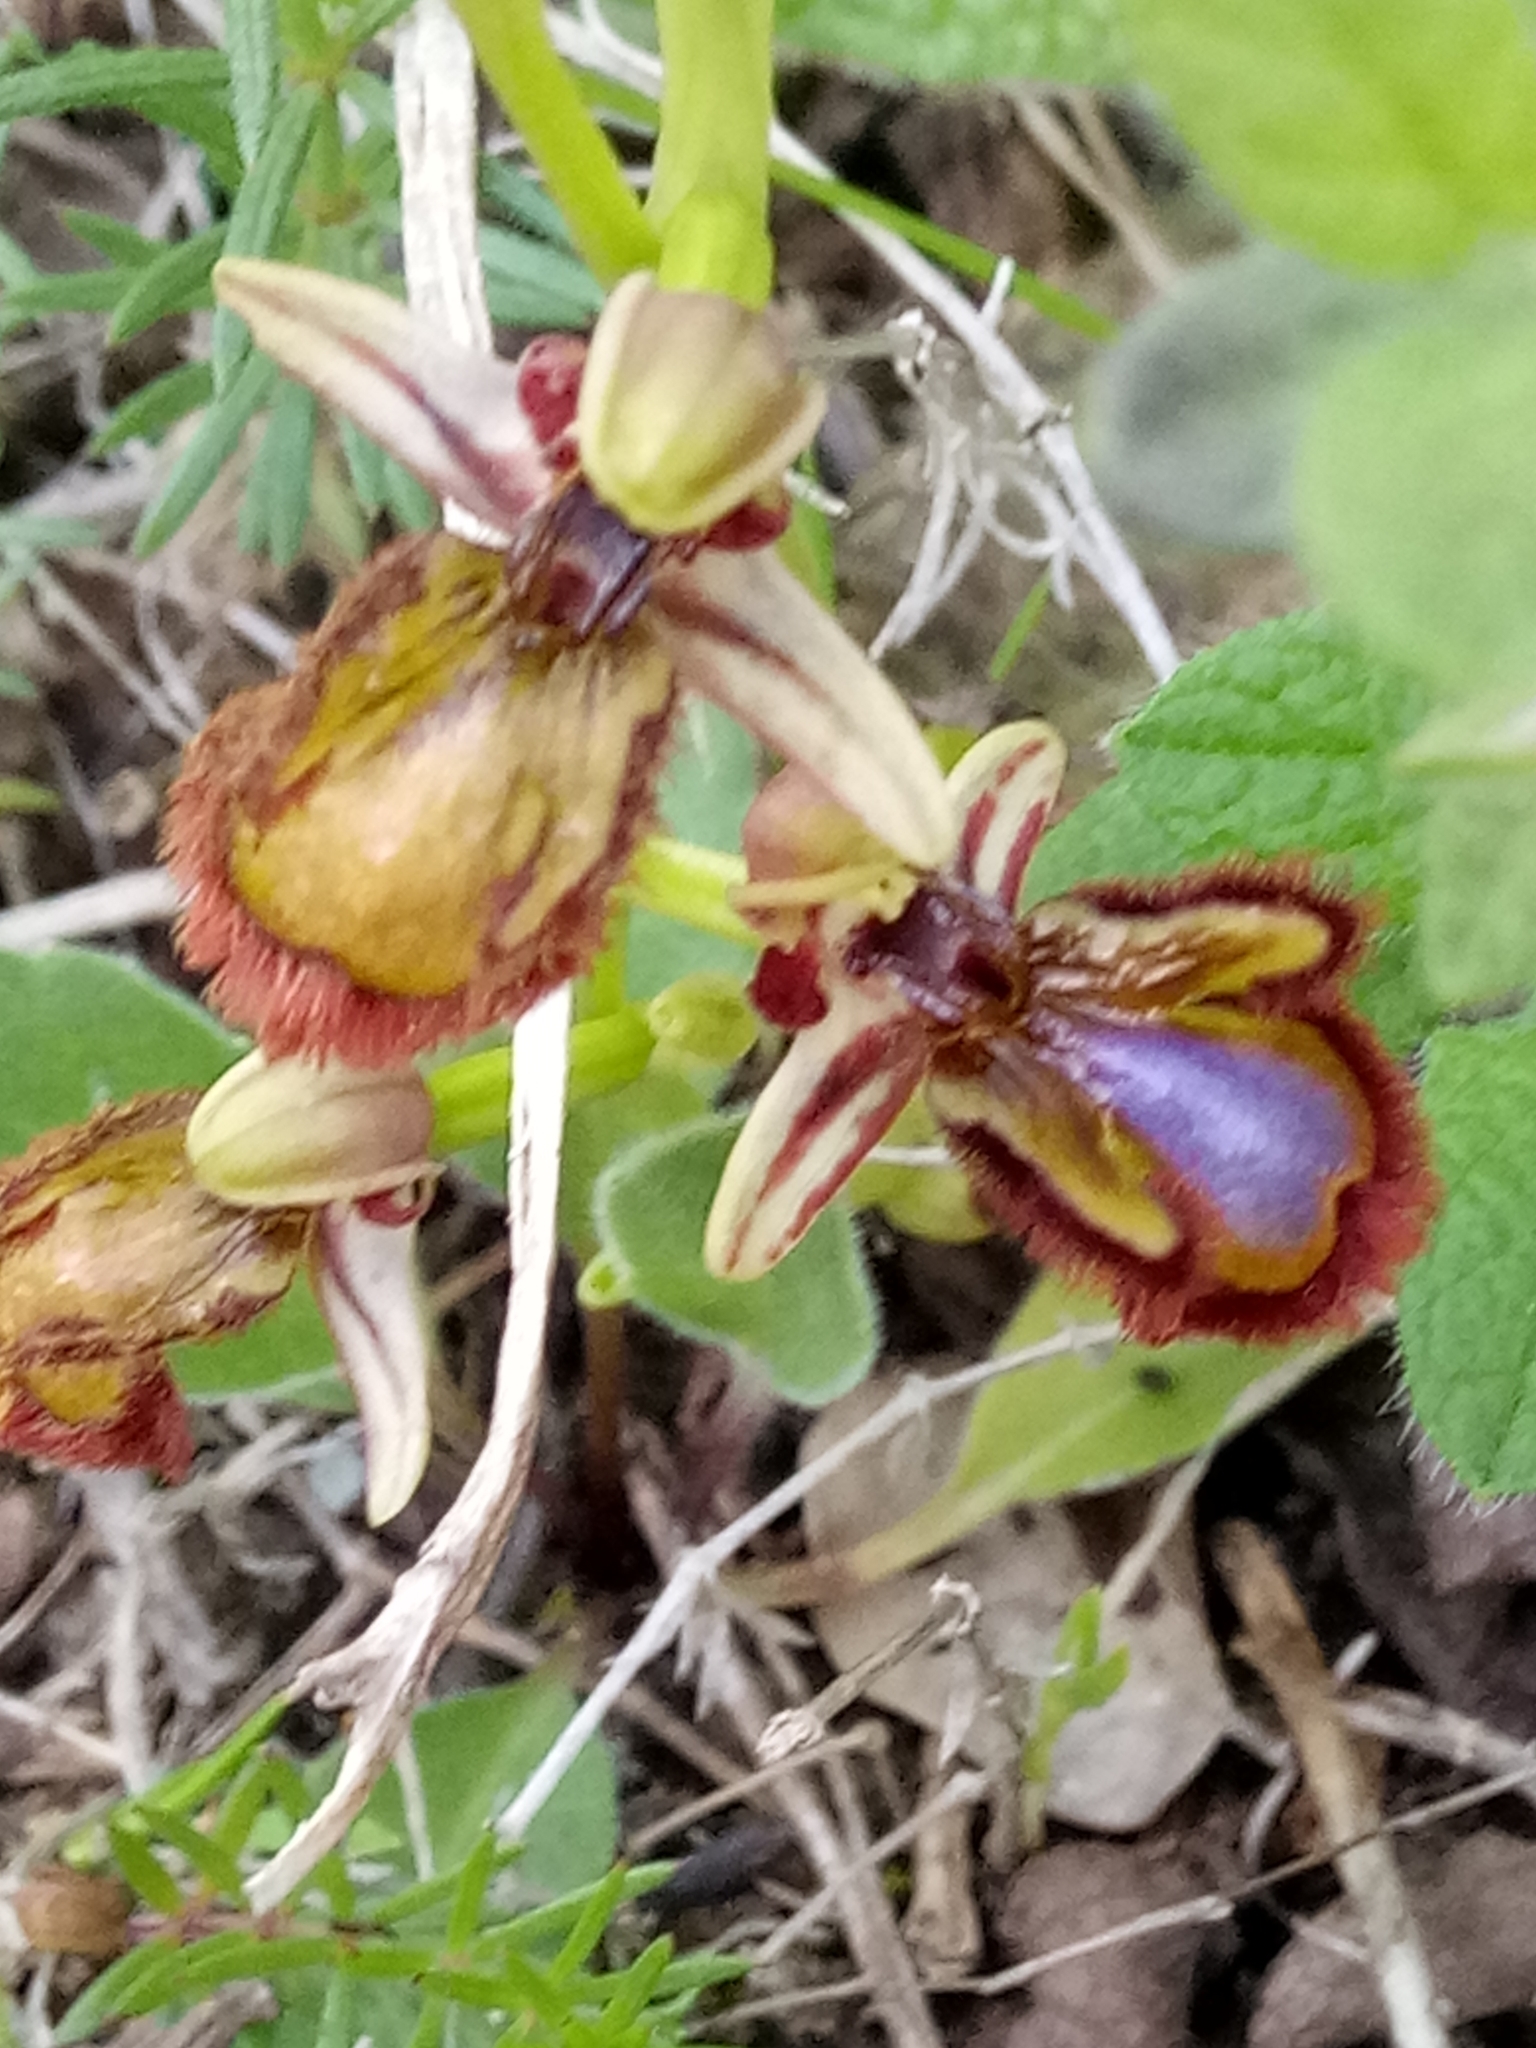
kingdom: Plantae
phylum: Tracheophyta
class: Liliopsida
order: Asparagales
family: Orchidaceae
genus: Ophrys
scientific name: Ophrys speculum
